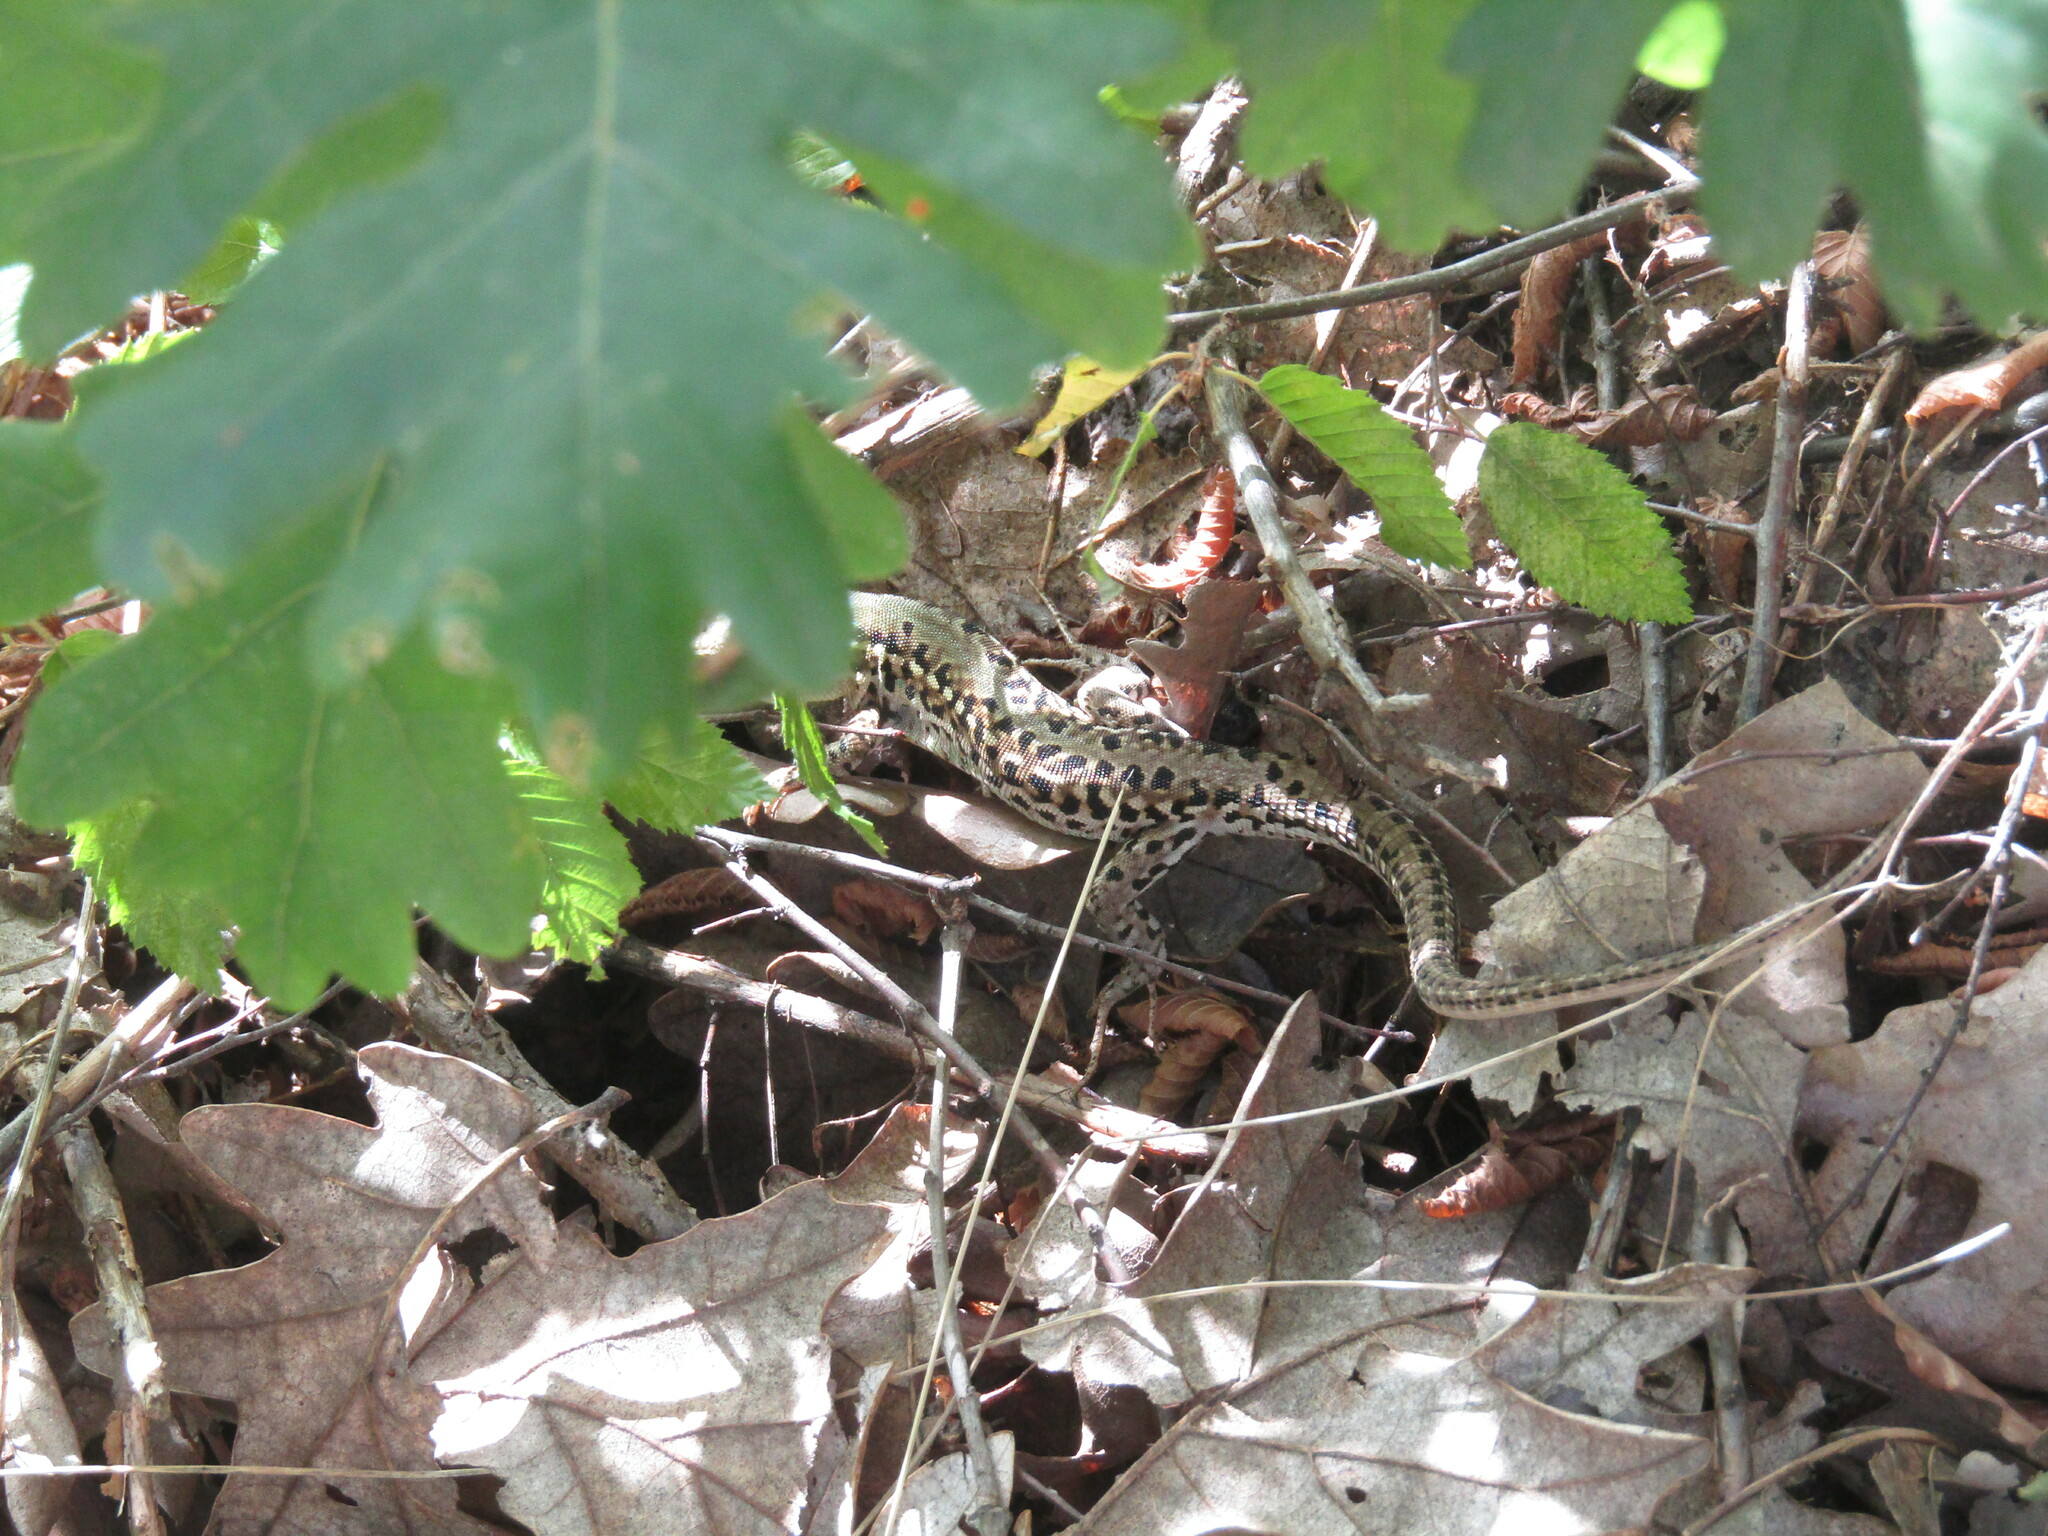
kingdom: Animalia
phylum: Chordata
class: Squamata
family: Lacertidae
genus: Podarcis
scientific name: Podarcis tauricus
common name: Balkan wall lizard
